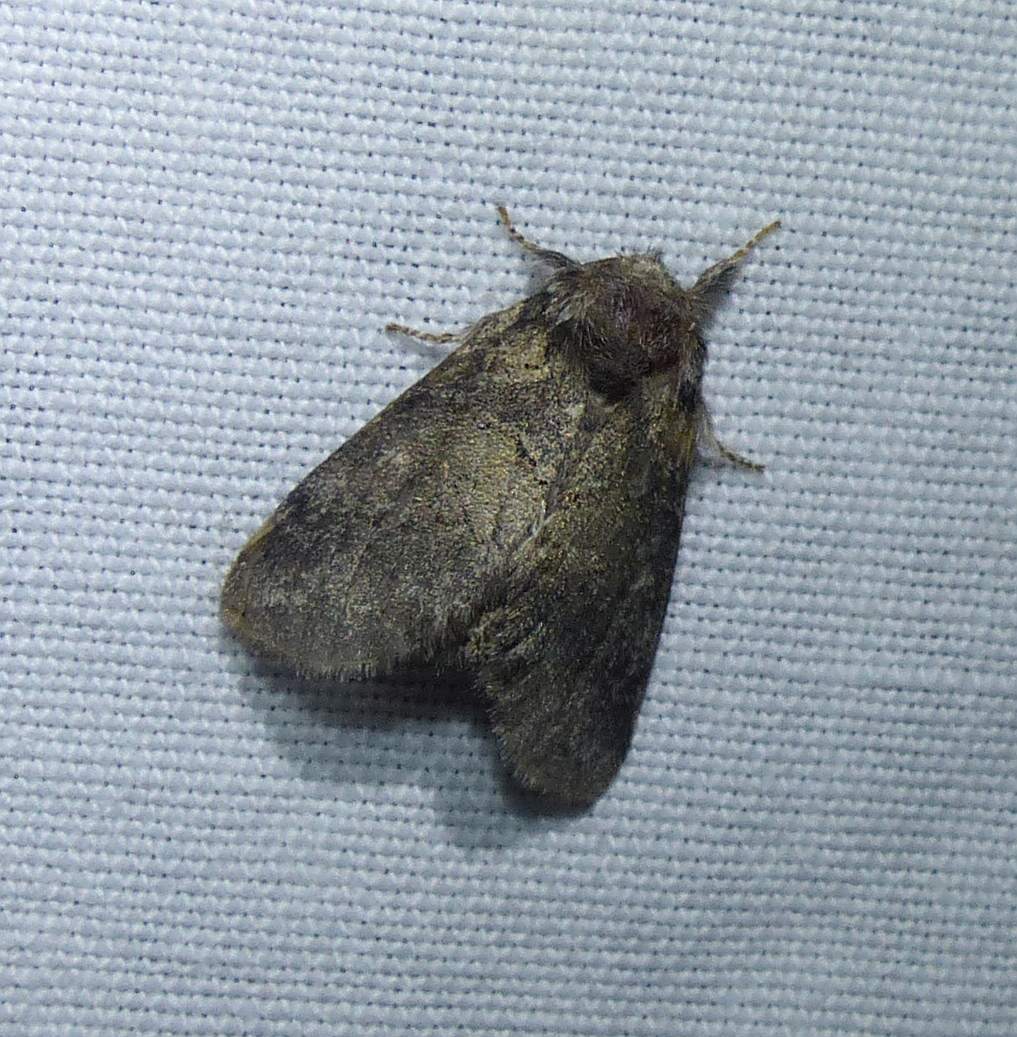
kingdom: Animalia
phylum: Arthropoda
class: Insecta
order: Lepidoptera
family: Notodontidae
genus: Gluphisia
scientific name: Gluphisia septentrionis
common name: Common gluphisia
